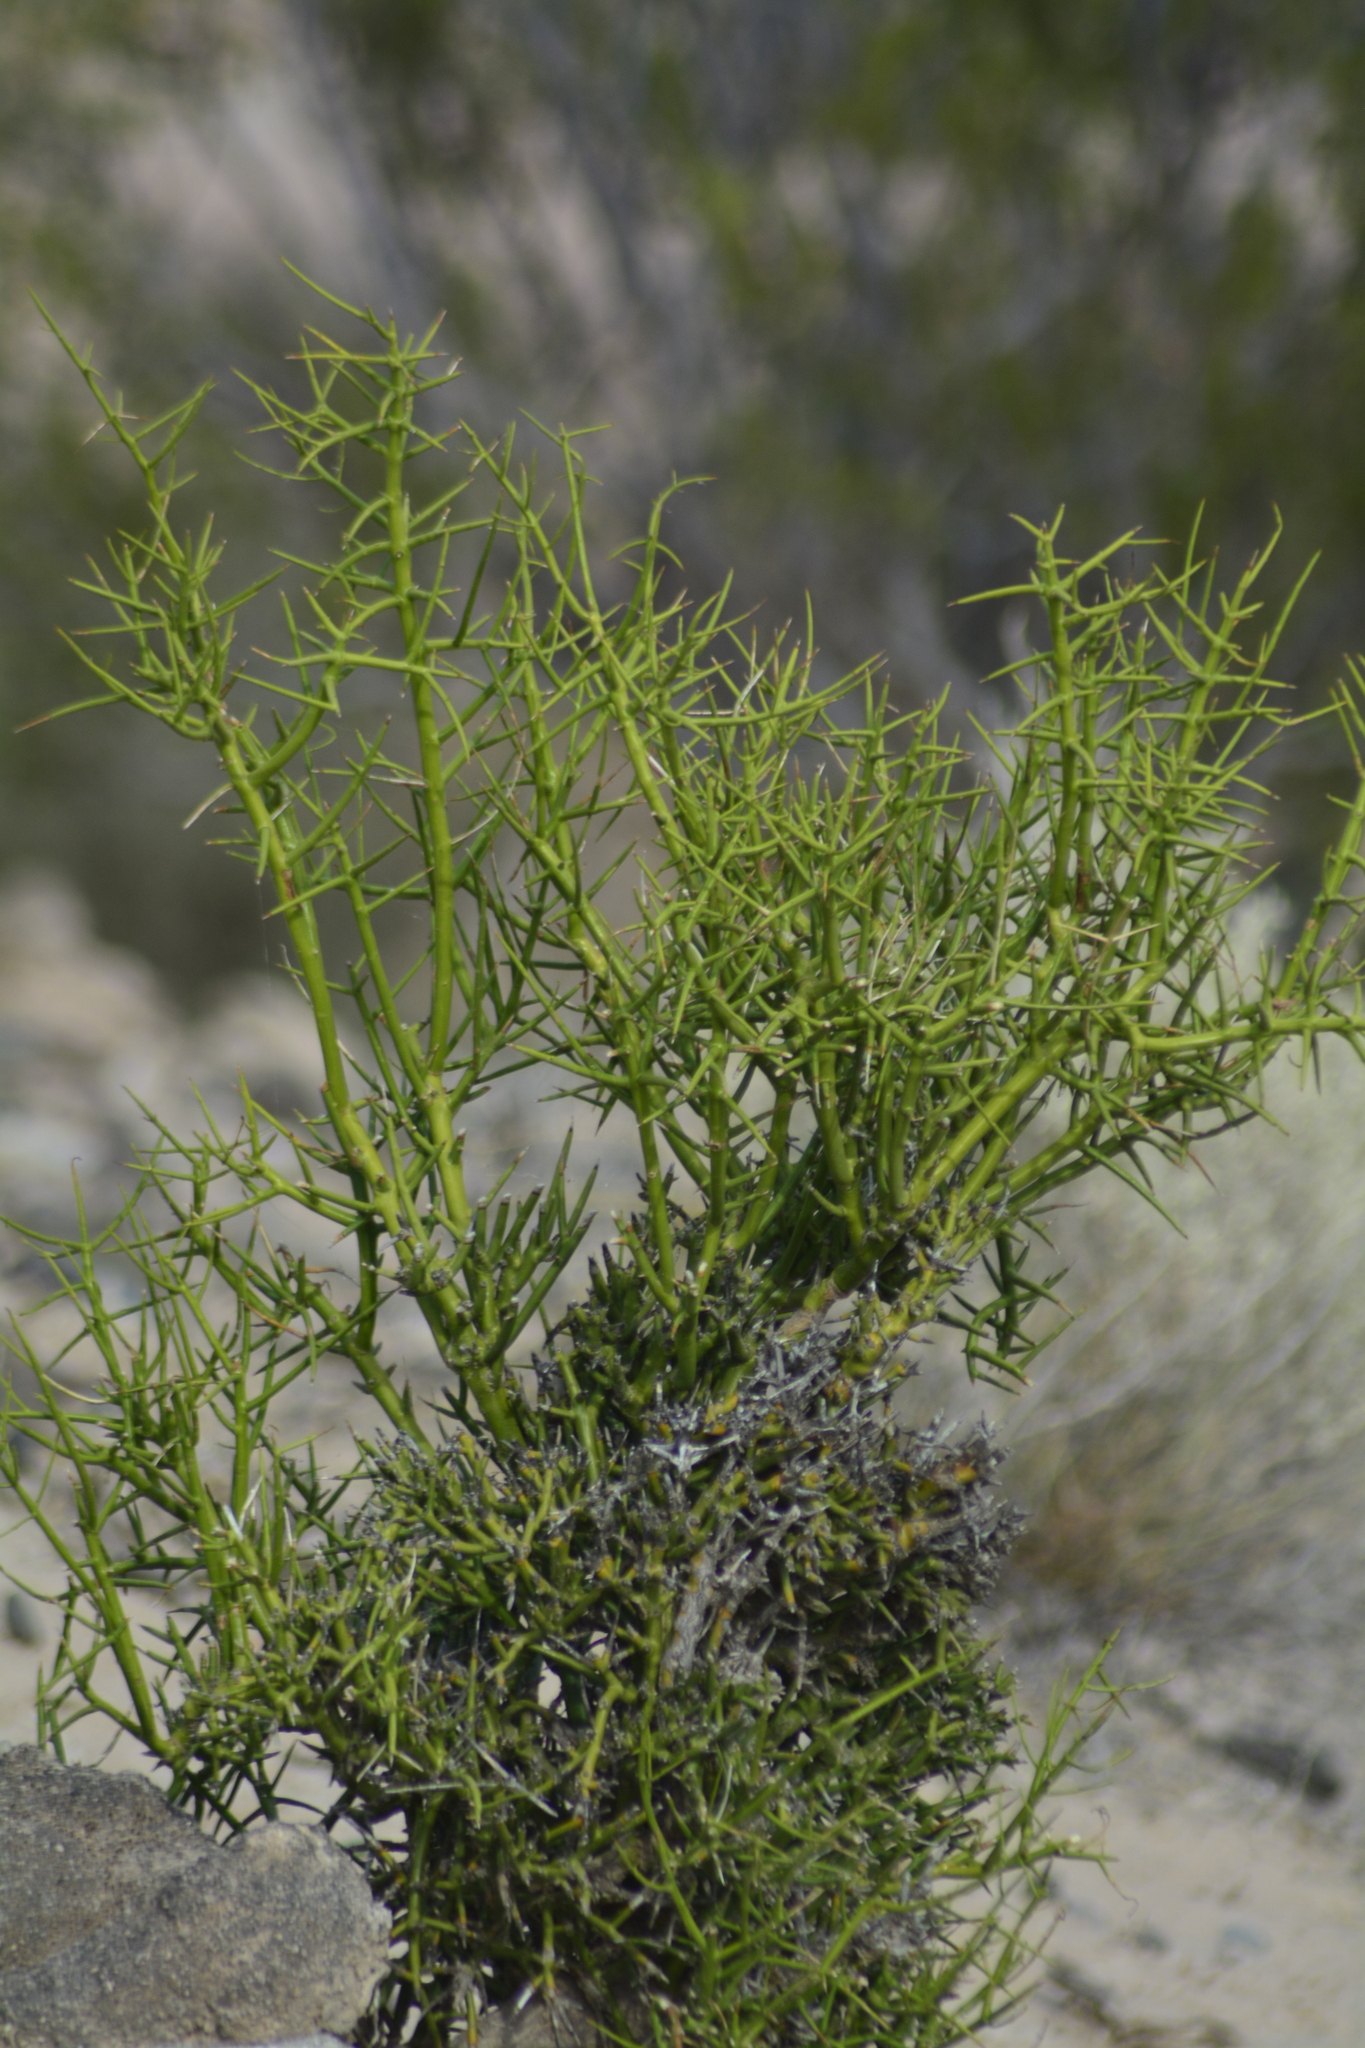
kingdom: Plantae
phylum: Tracheophyta
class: Magnoliopsida
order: Lamiales
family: Plantaginaceae
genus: Monttea
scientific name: Monttea aphylla
